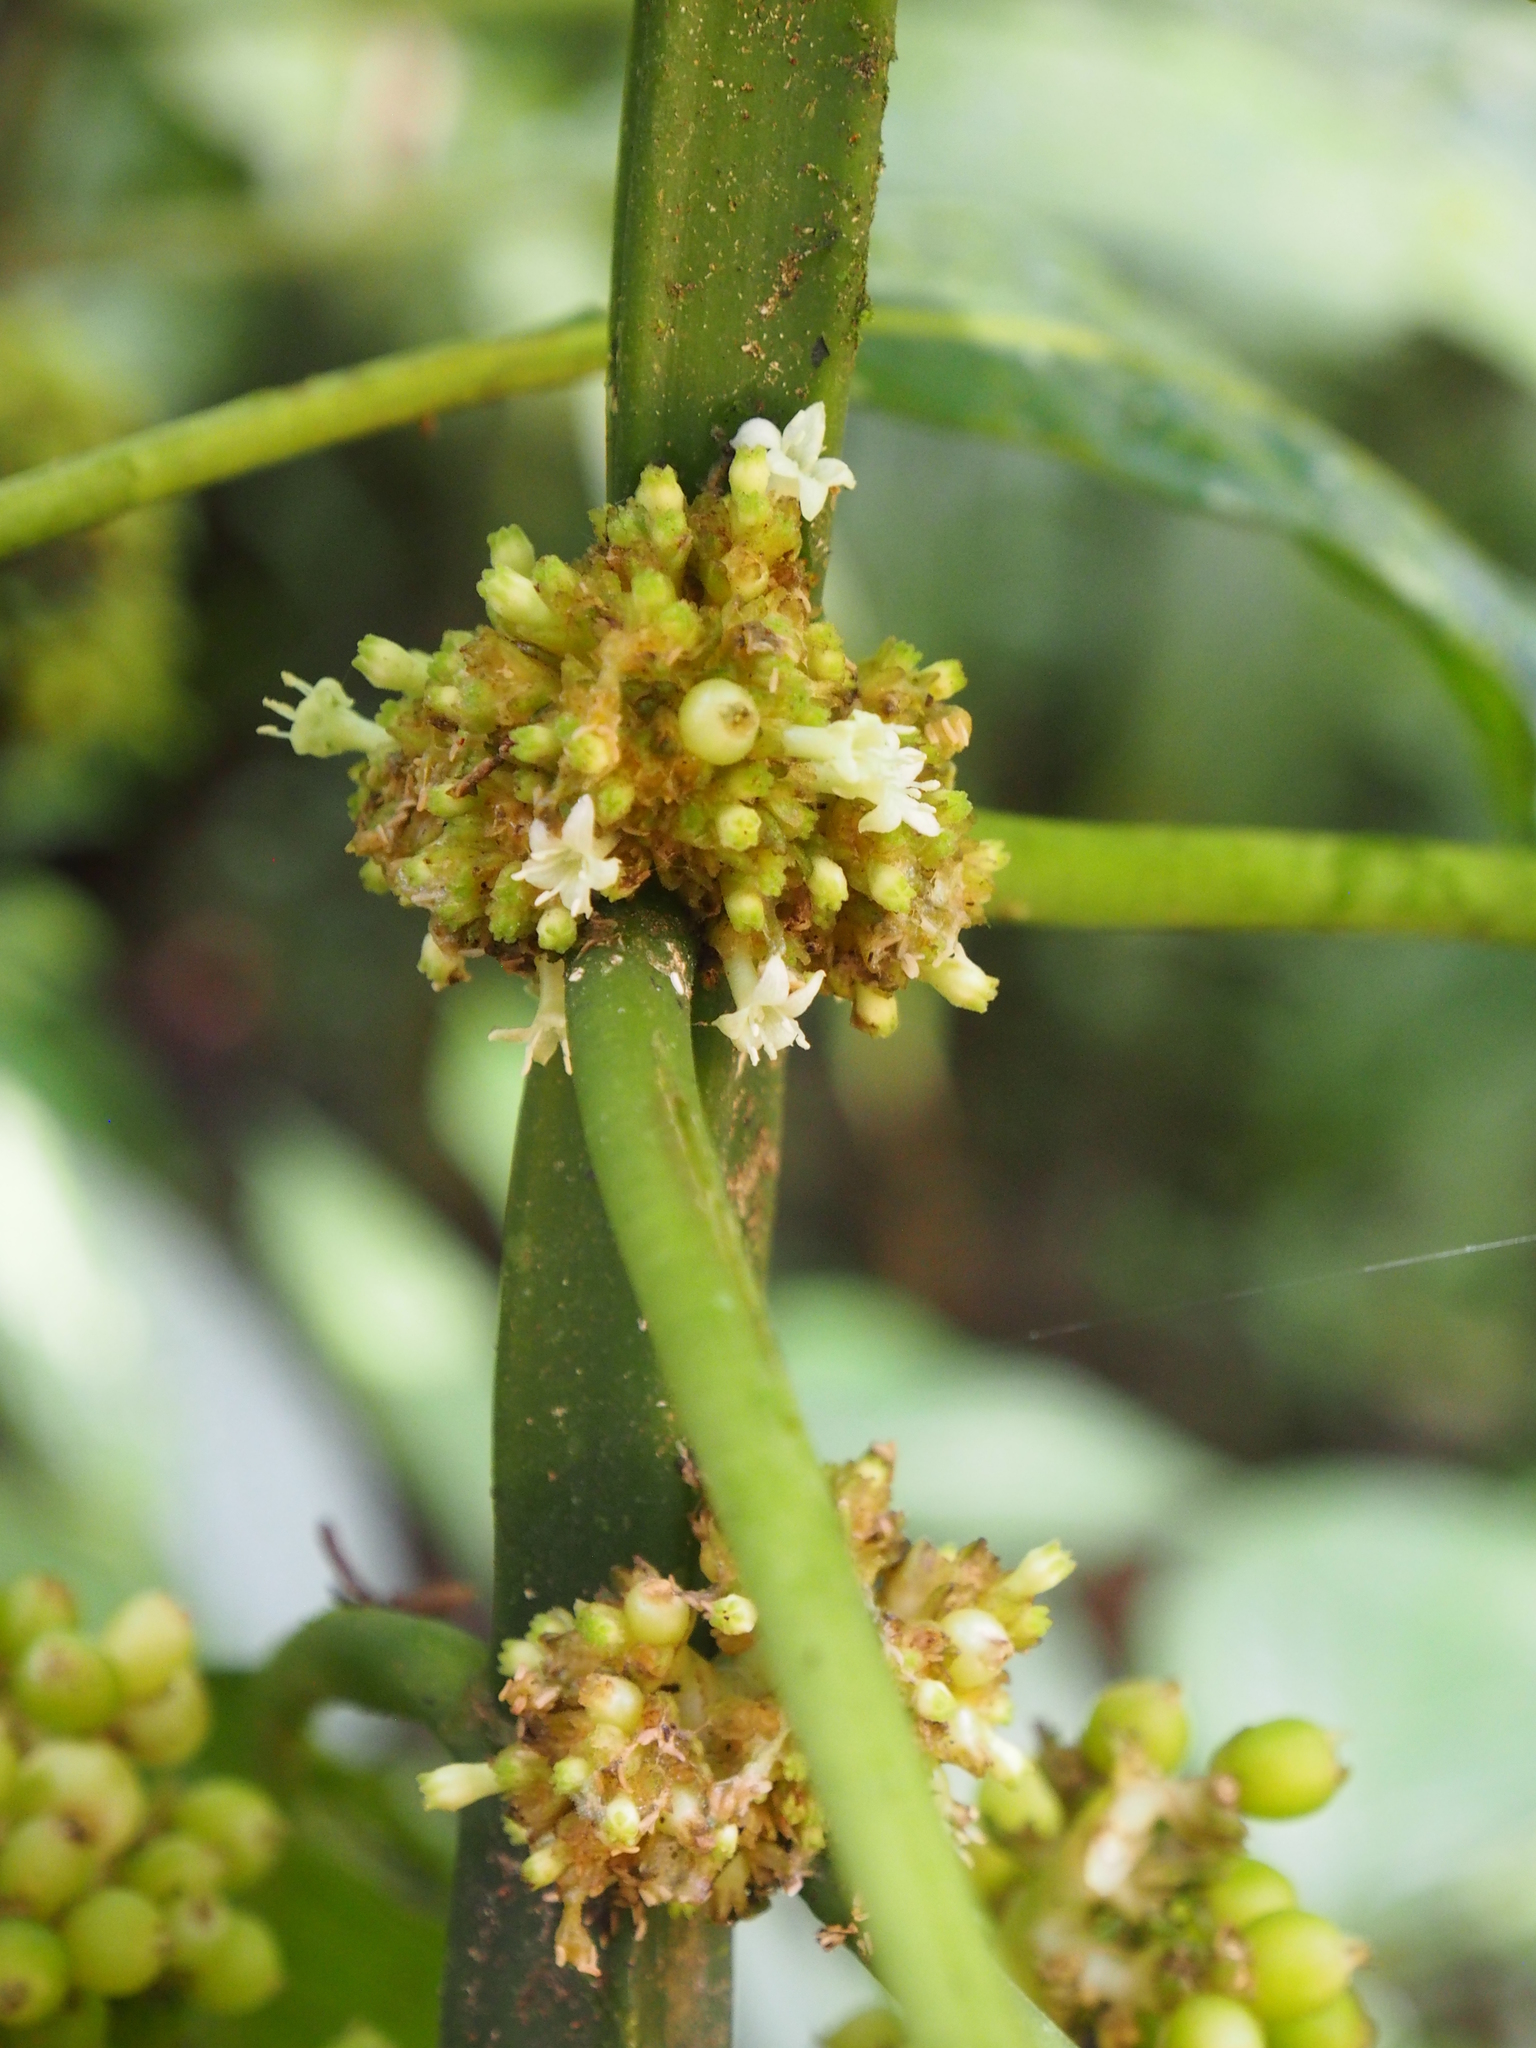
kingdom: Plantae
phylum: Tracheophyta
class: Magnoliopsida
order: Gentianales
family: Rubiaceae
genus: Notopleura
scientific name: Notopleura capitata
